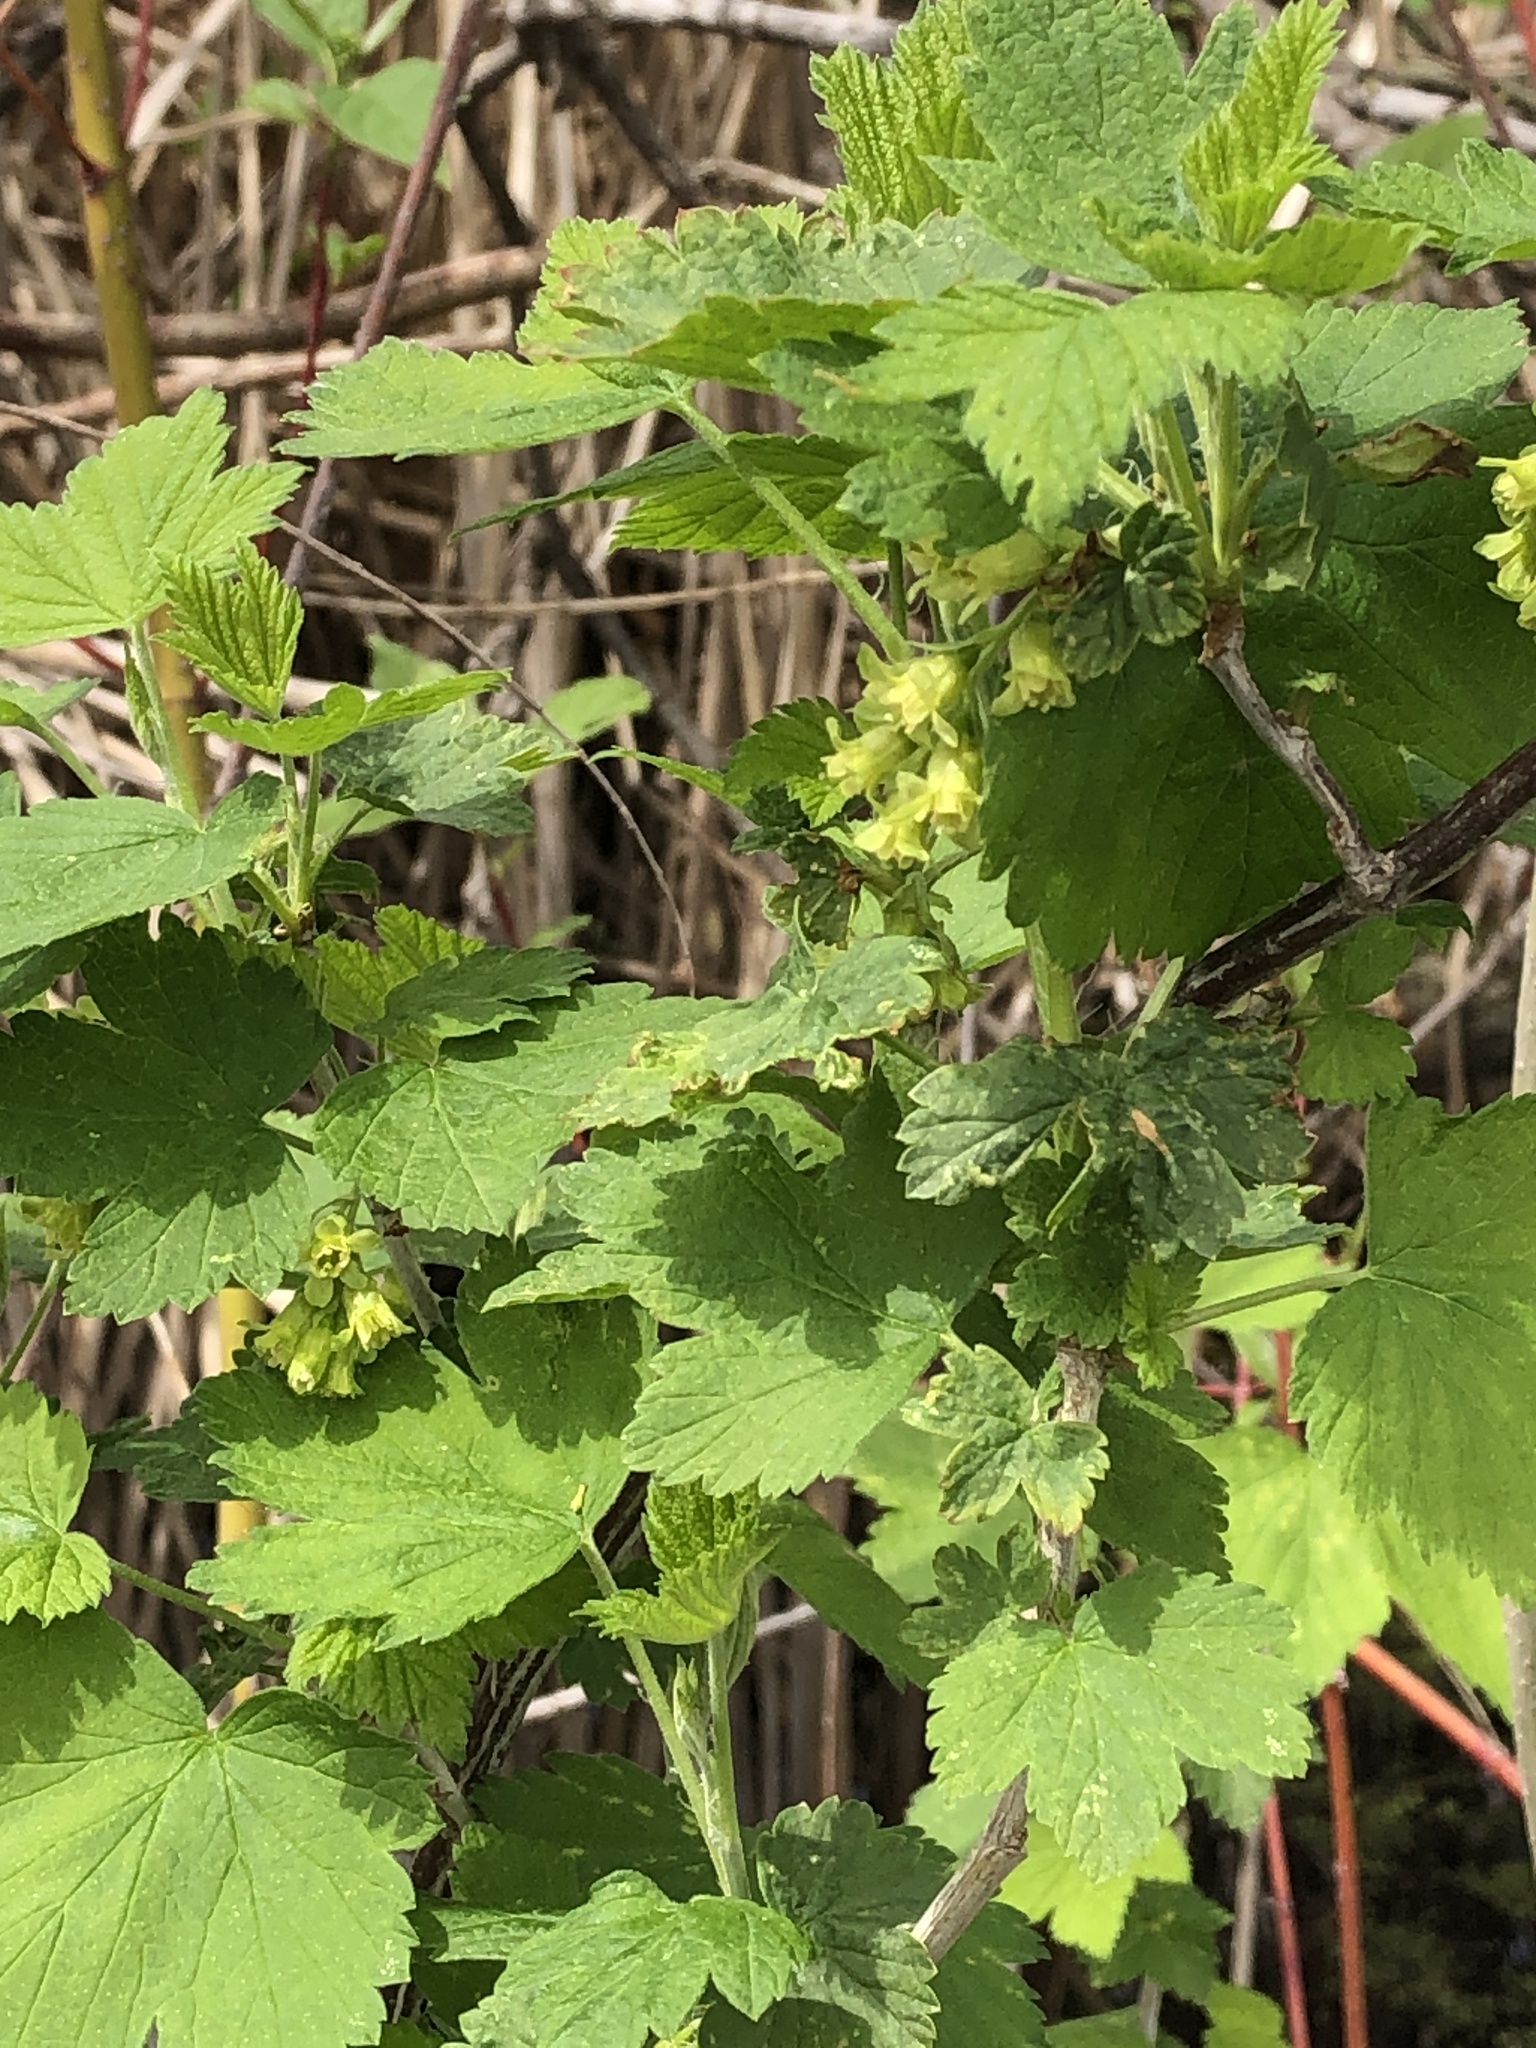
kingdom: Plantae
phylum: Tracheophyta
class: Magnoliopsida
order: Saxifragales
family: Grossulariaceae
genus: Ribes
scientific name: Ribes americanum
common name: American black currant
